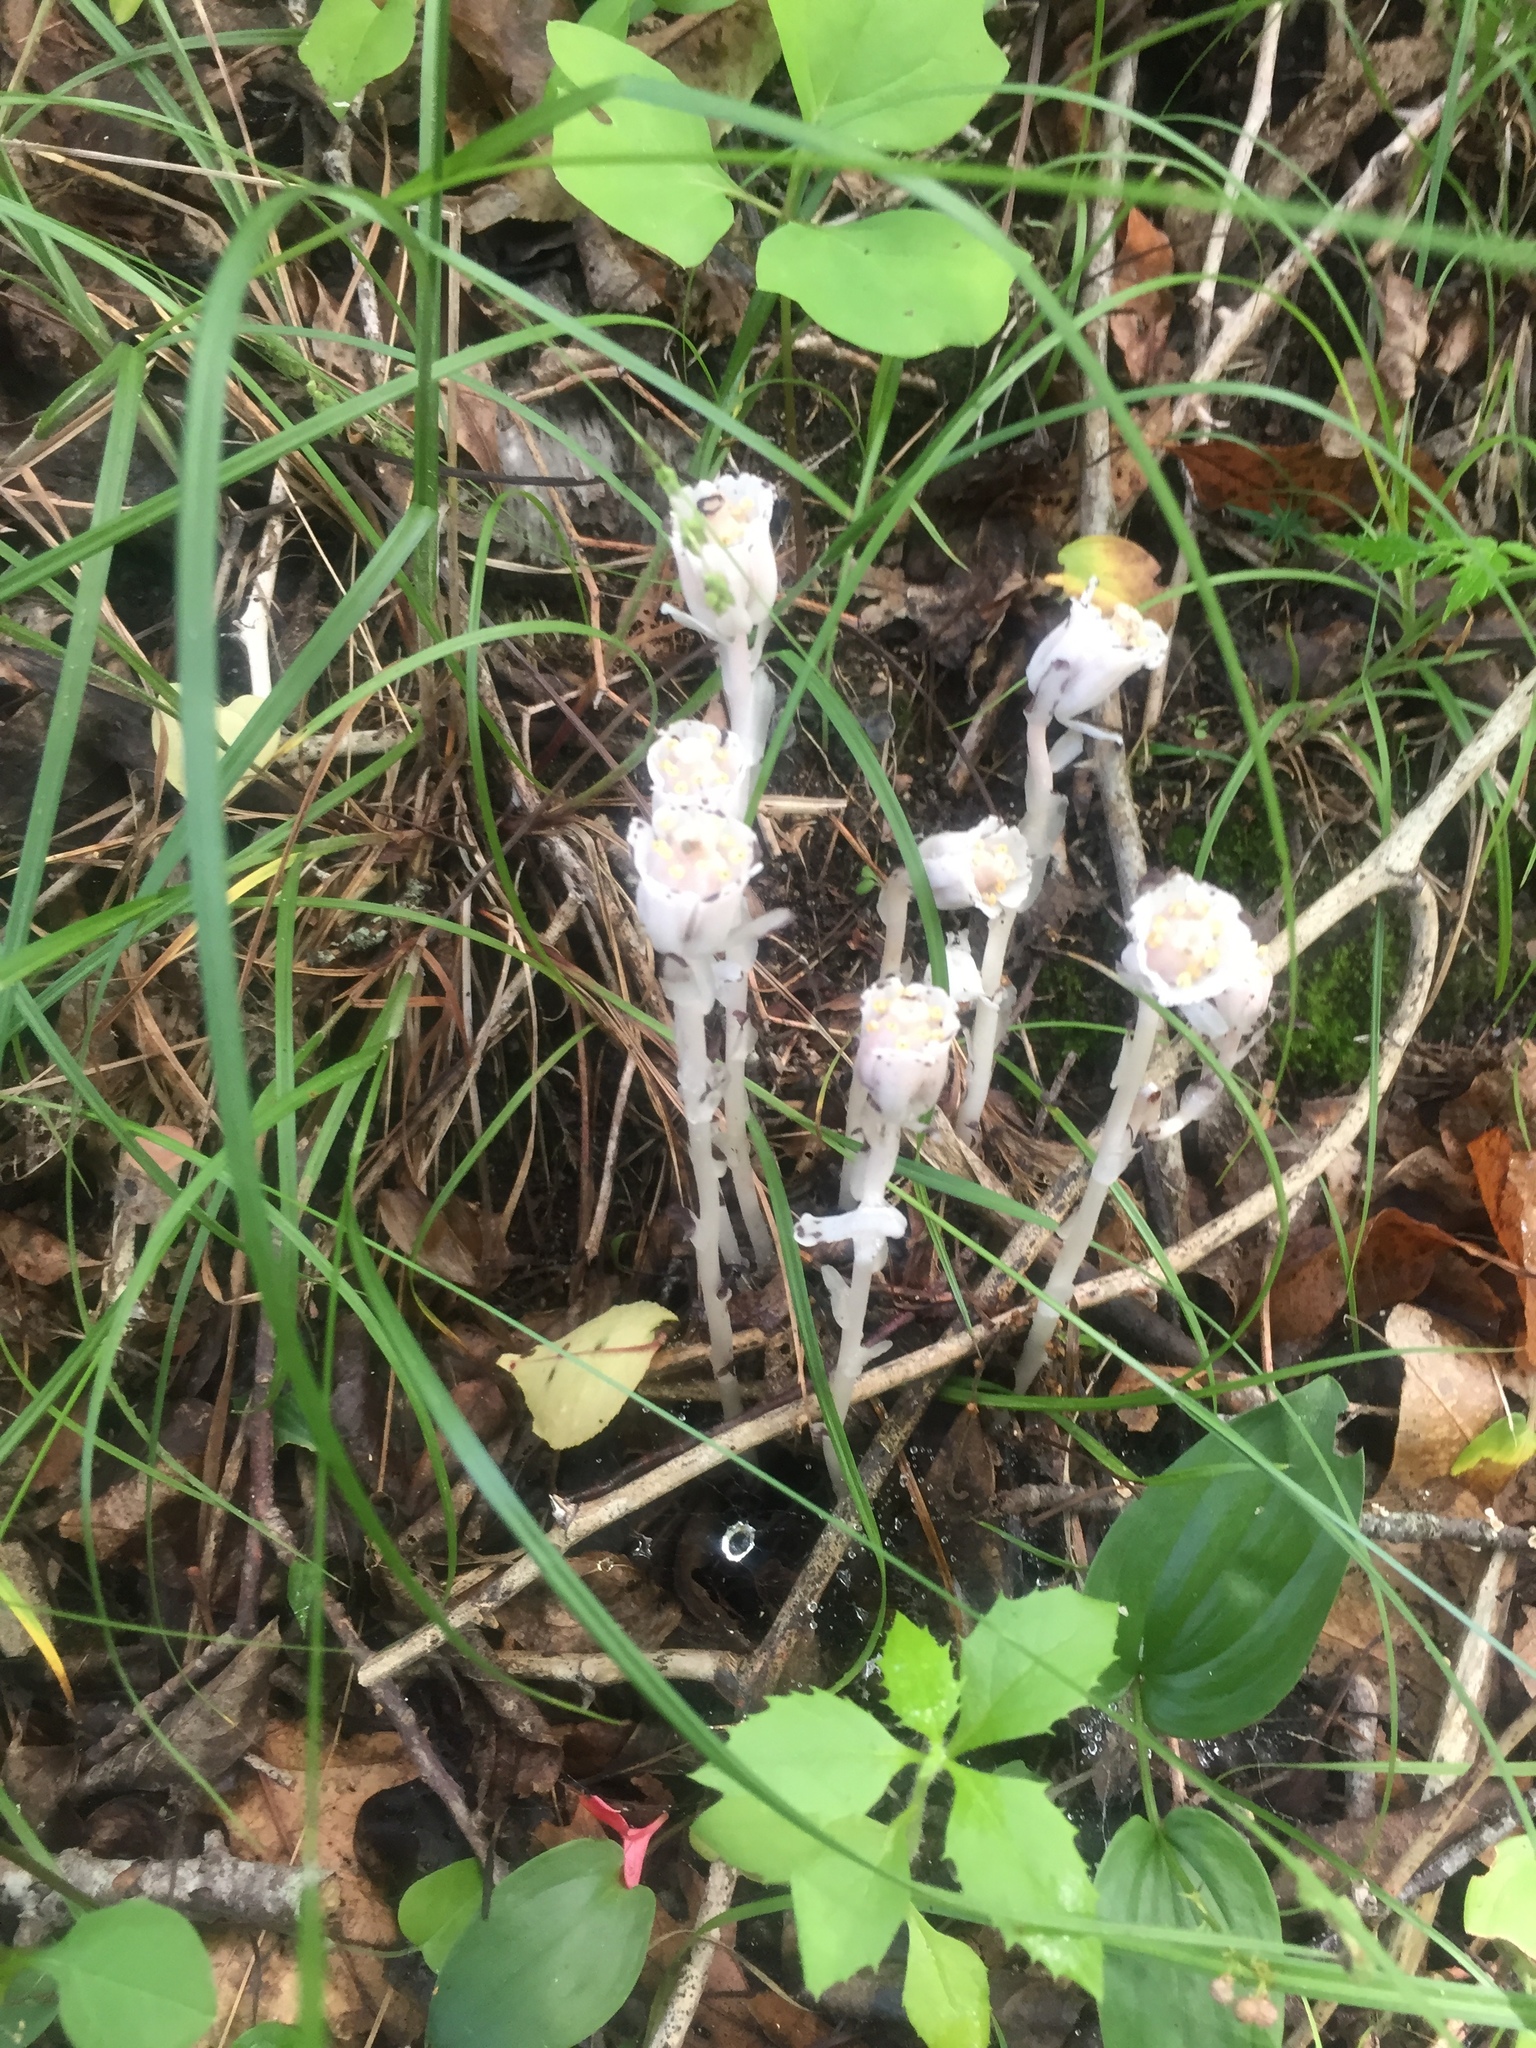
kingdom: Plantae
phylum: Tracheophyta
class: Magnoliopsida
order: Ericales
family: Ericaceae
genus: Monotropa
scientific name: Monotropa uniflora
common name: Convulsion root
